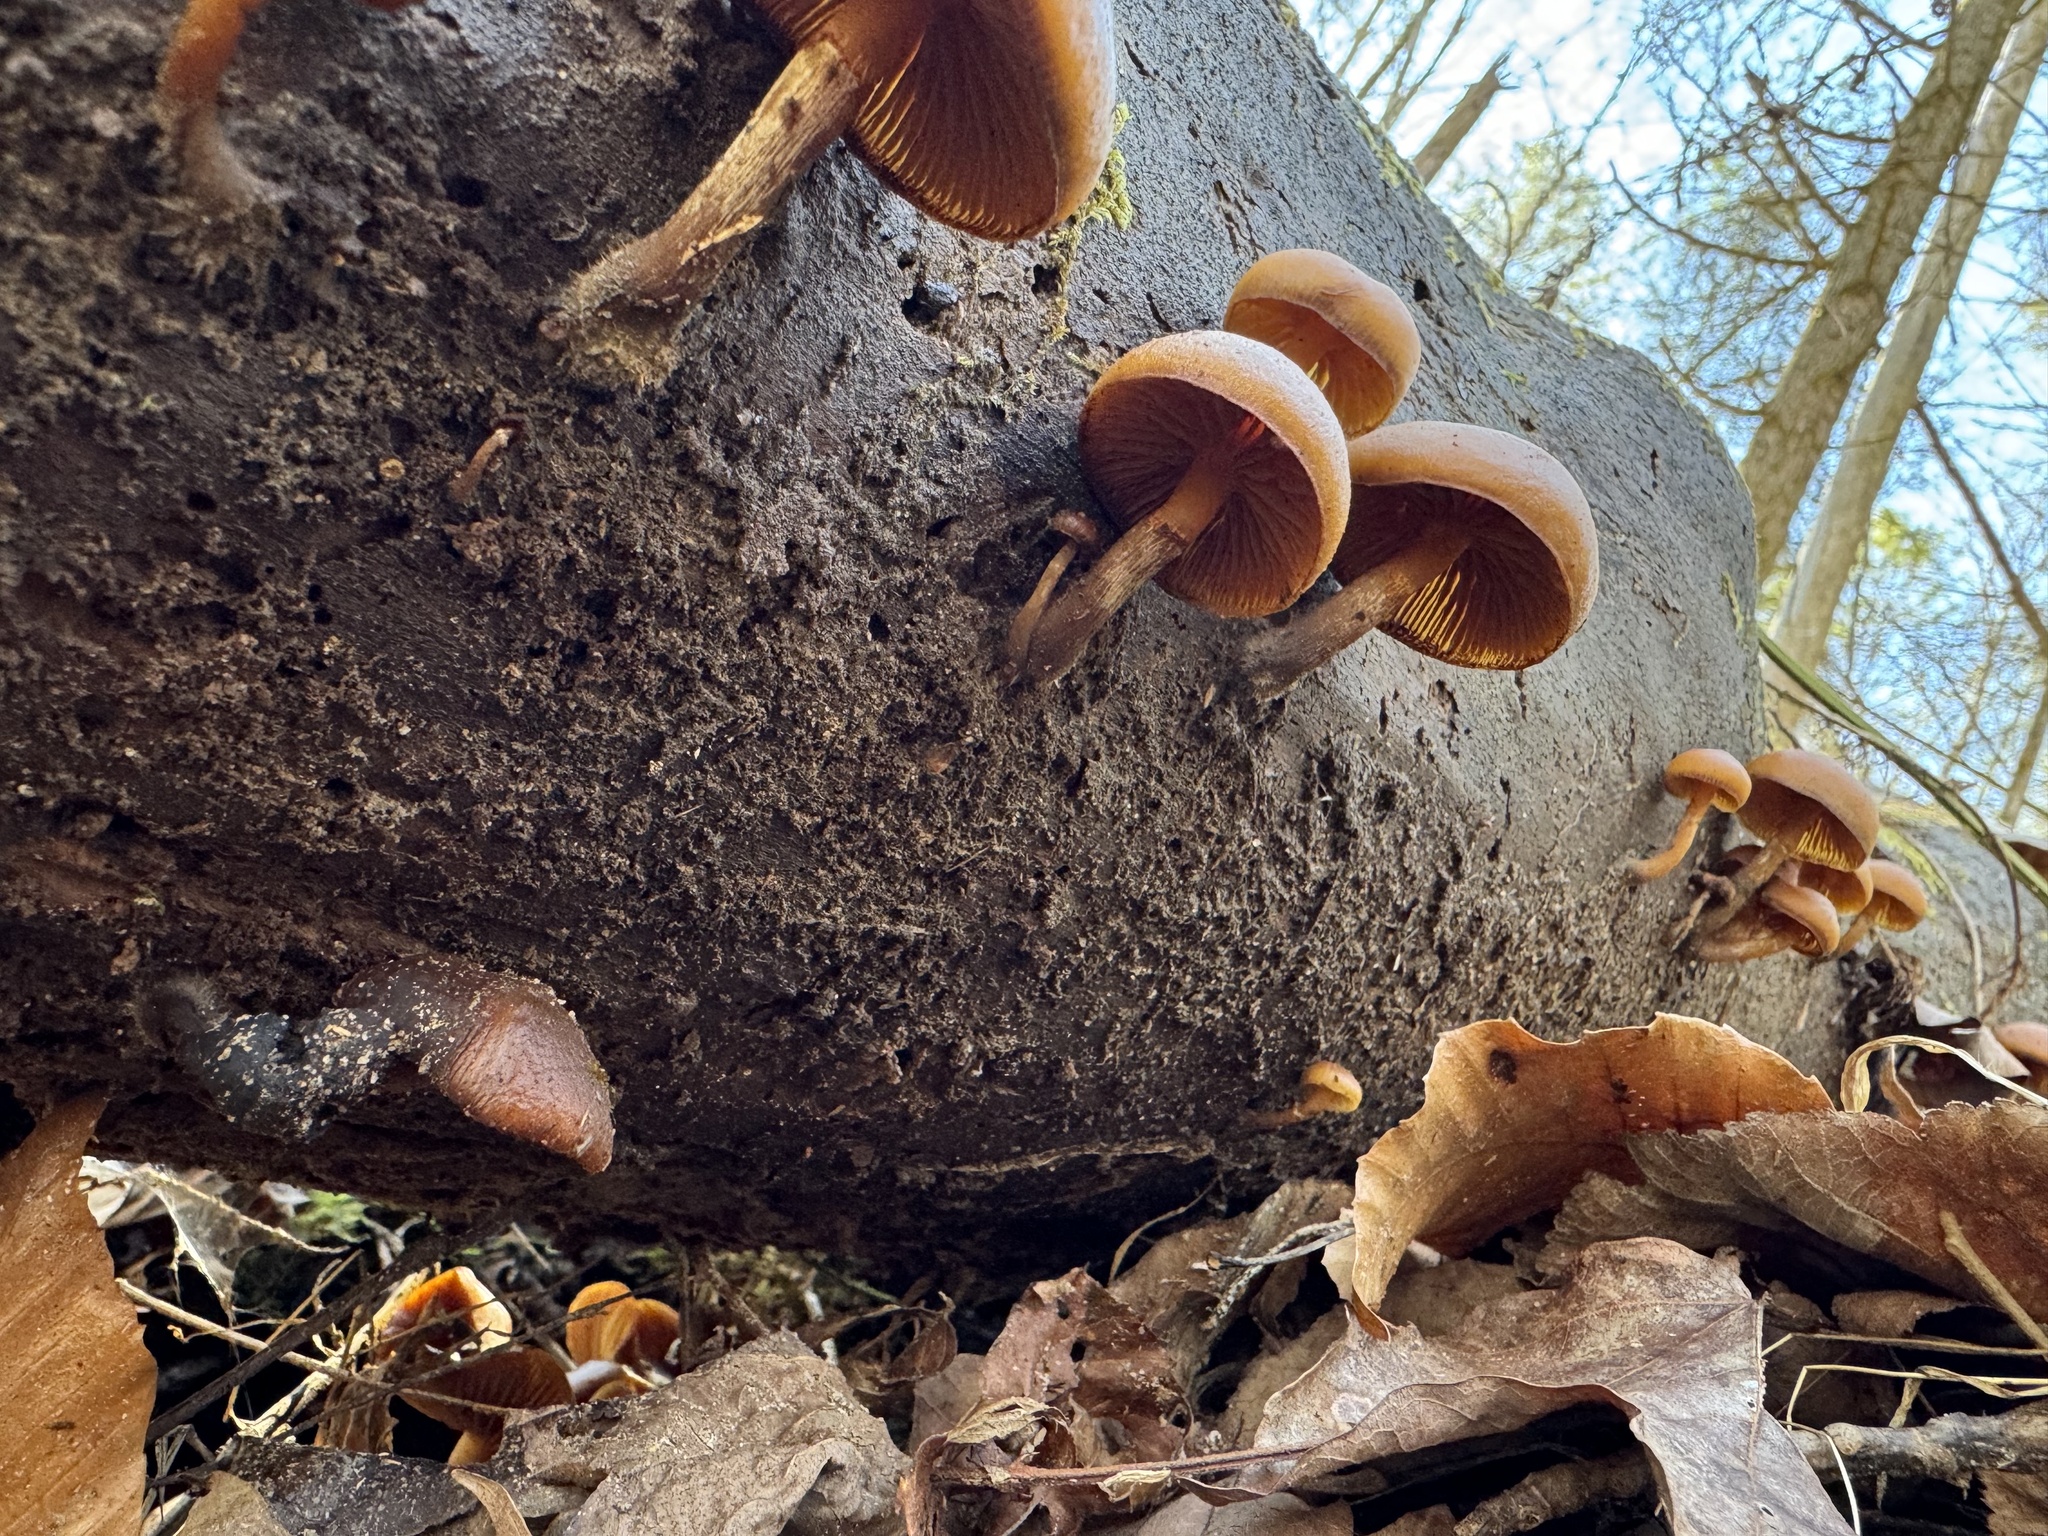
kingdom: Fungi
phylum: Basidiomycota
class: Agaricomycetes
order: Agaricales
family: Hymenogastraceae
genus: Galerina
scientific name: Galerina marginata
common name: Funeral bell
